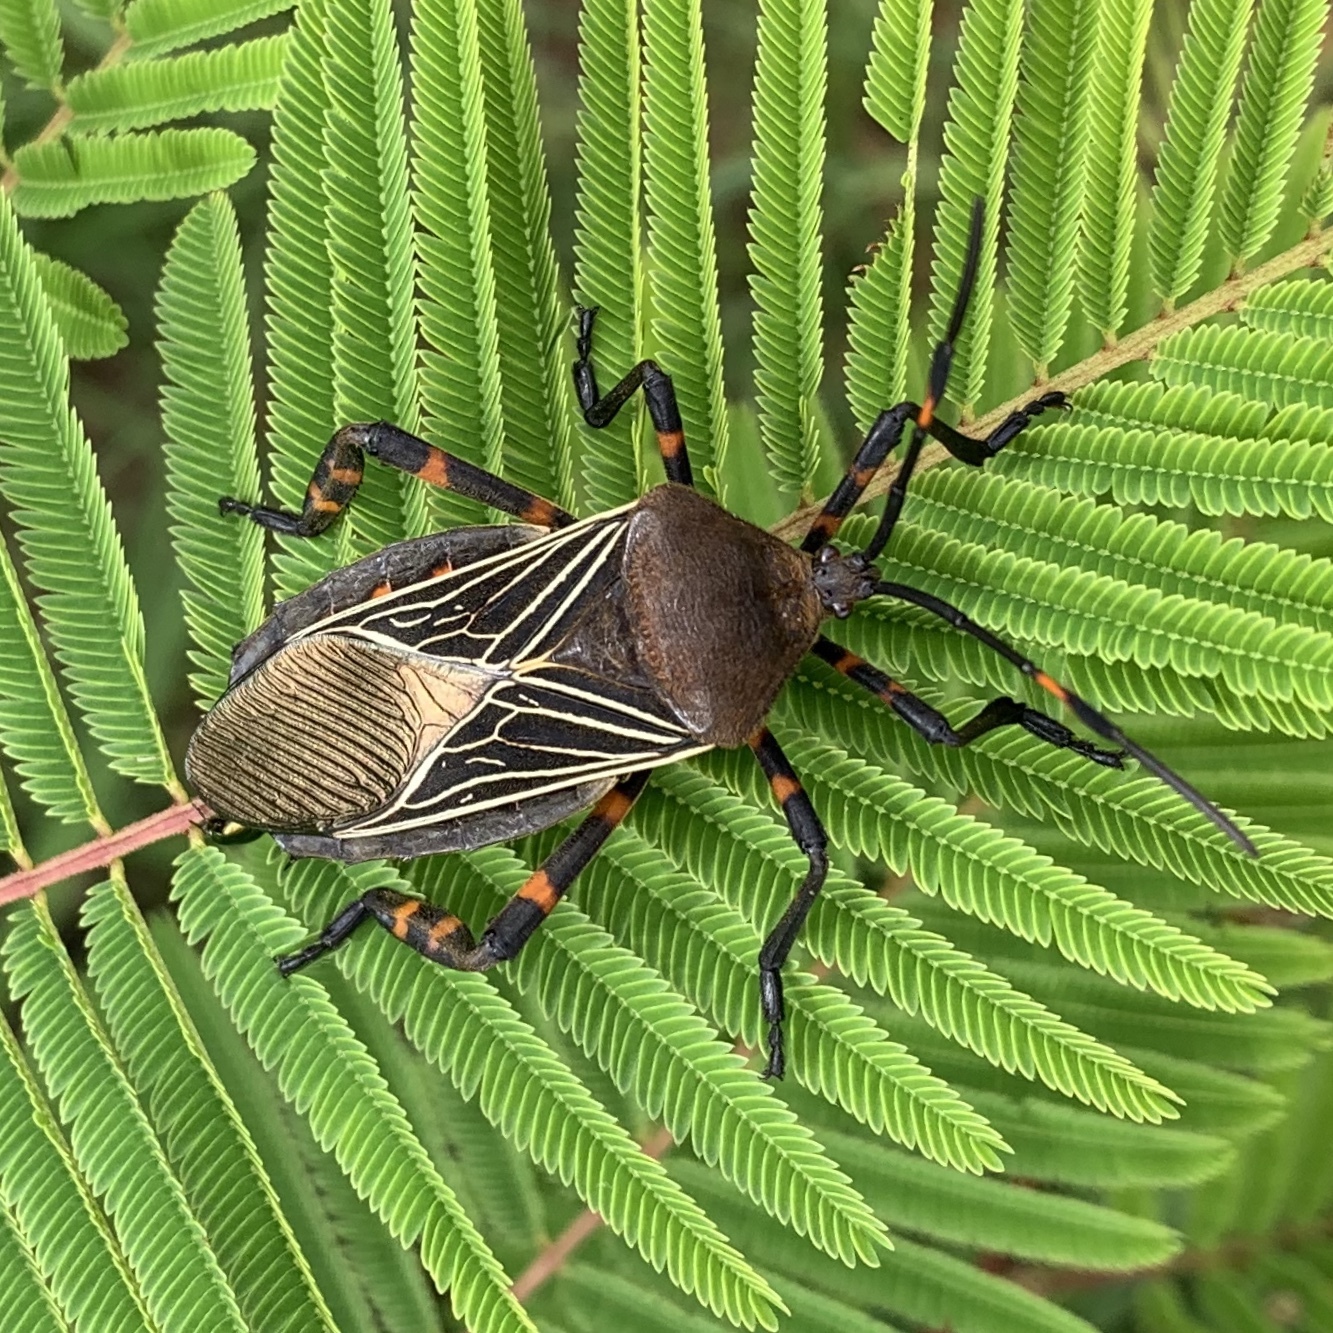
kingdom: Animalia
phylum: Arthropoda
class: Insecta
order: Hemiptera
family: Coreidae
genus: Thasus
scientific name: Thasus
